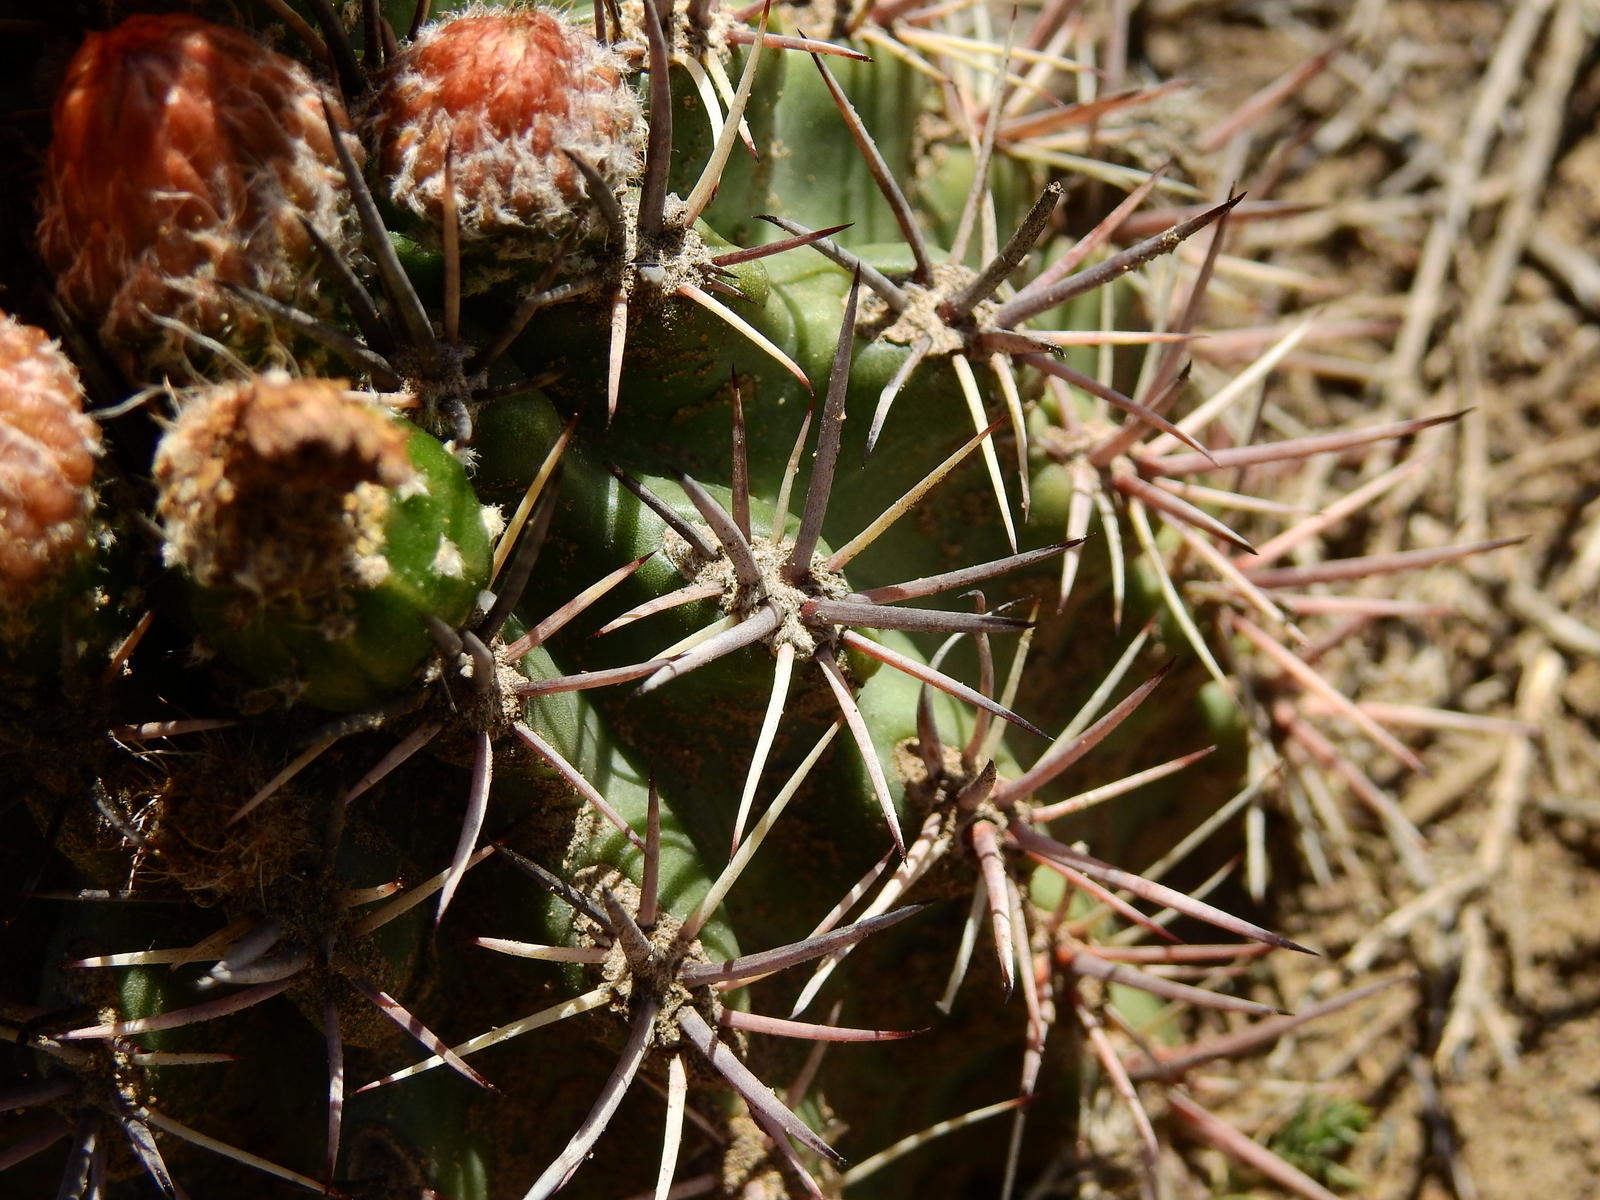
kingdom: Plantae
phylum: Tracheophyta
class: Magnoliopsida
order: Caryophyllales
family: Cactaceae
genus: Eriosyce
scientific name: Eriosyce strausiana
